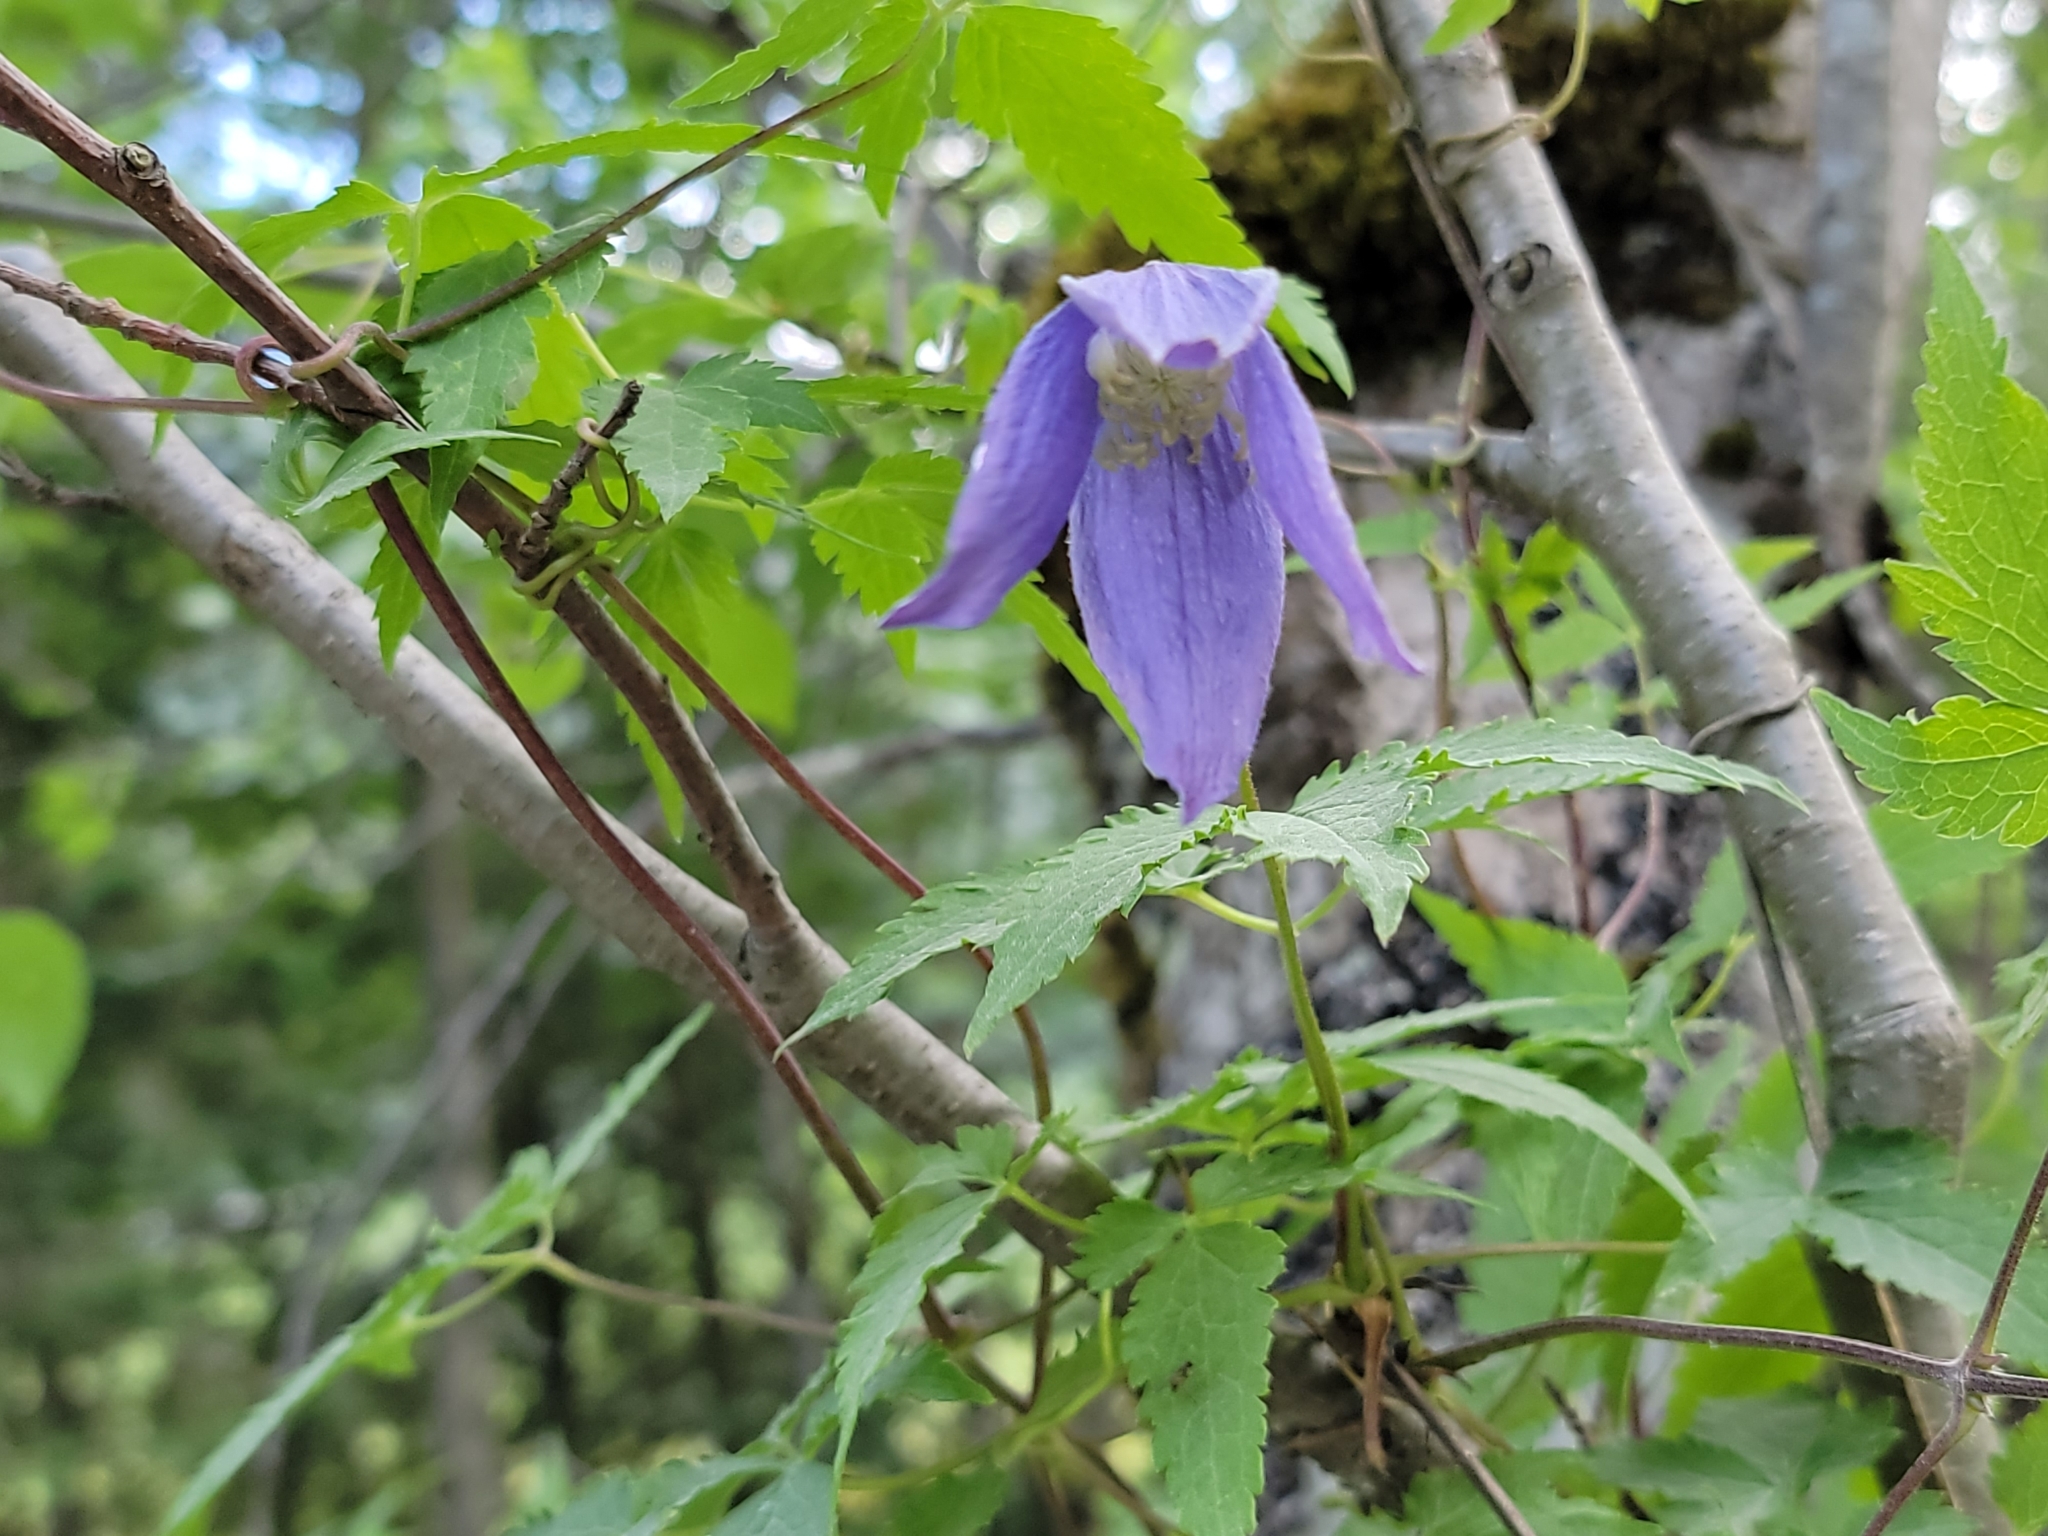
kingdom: Plantae
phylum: Tracheophyta
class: Magnoliopsida
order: Ranunculales
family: Ranunculaceae
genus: Clematis
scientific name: Clematis alpina
